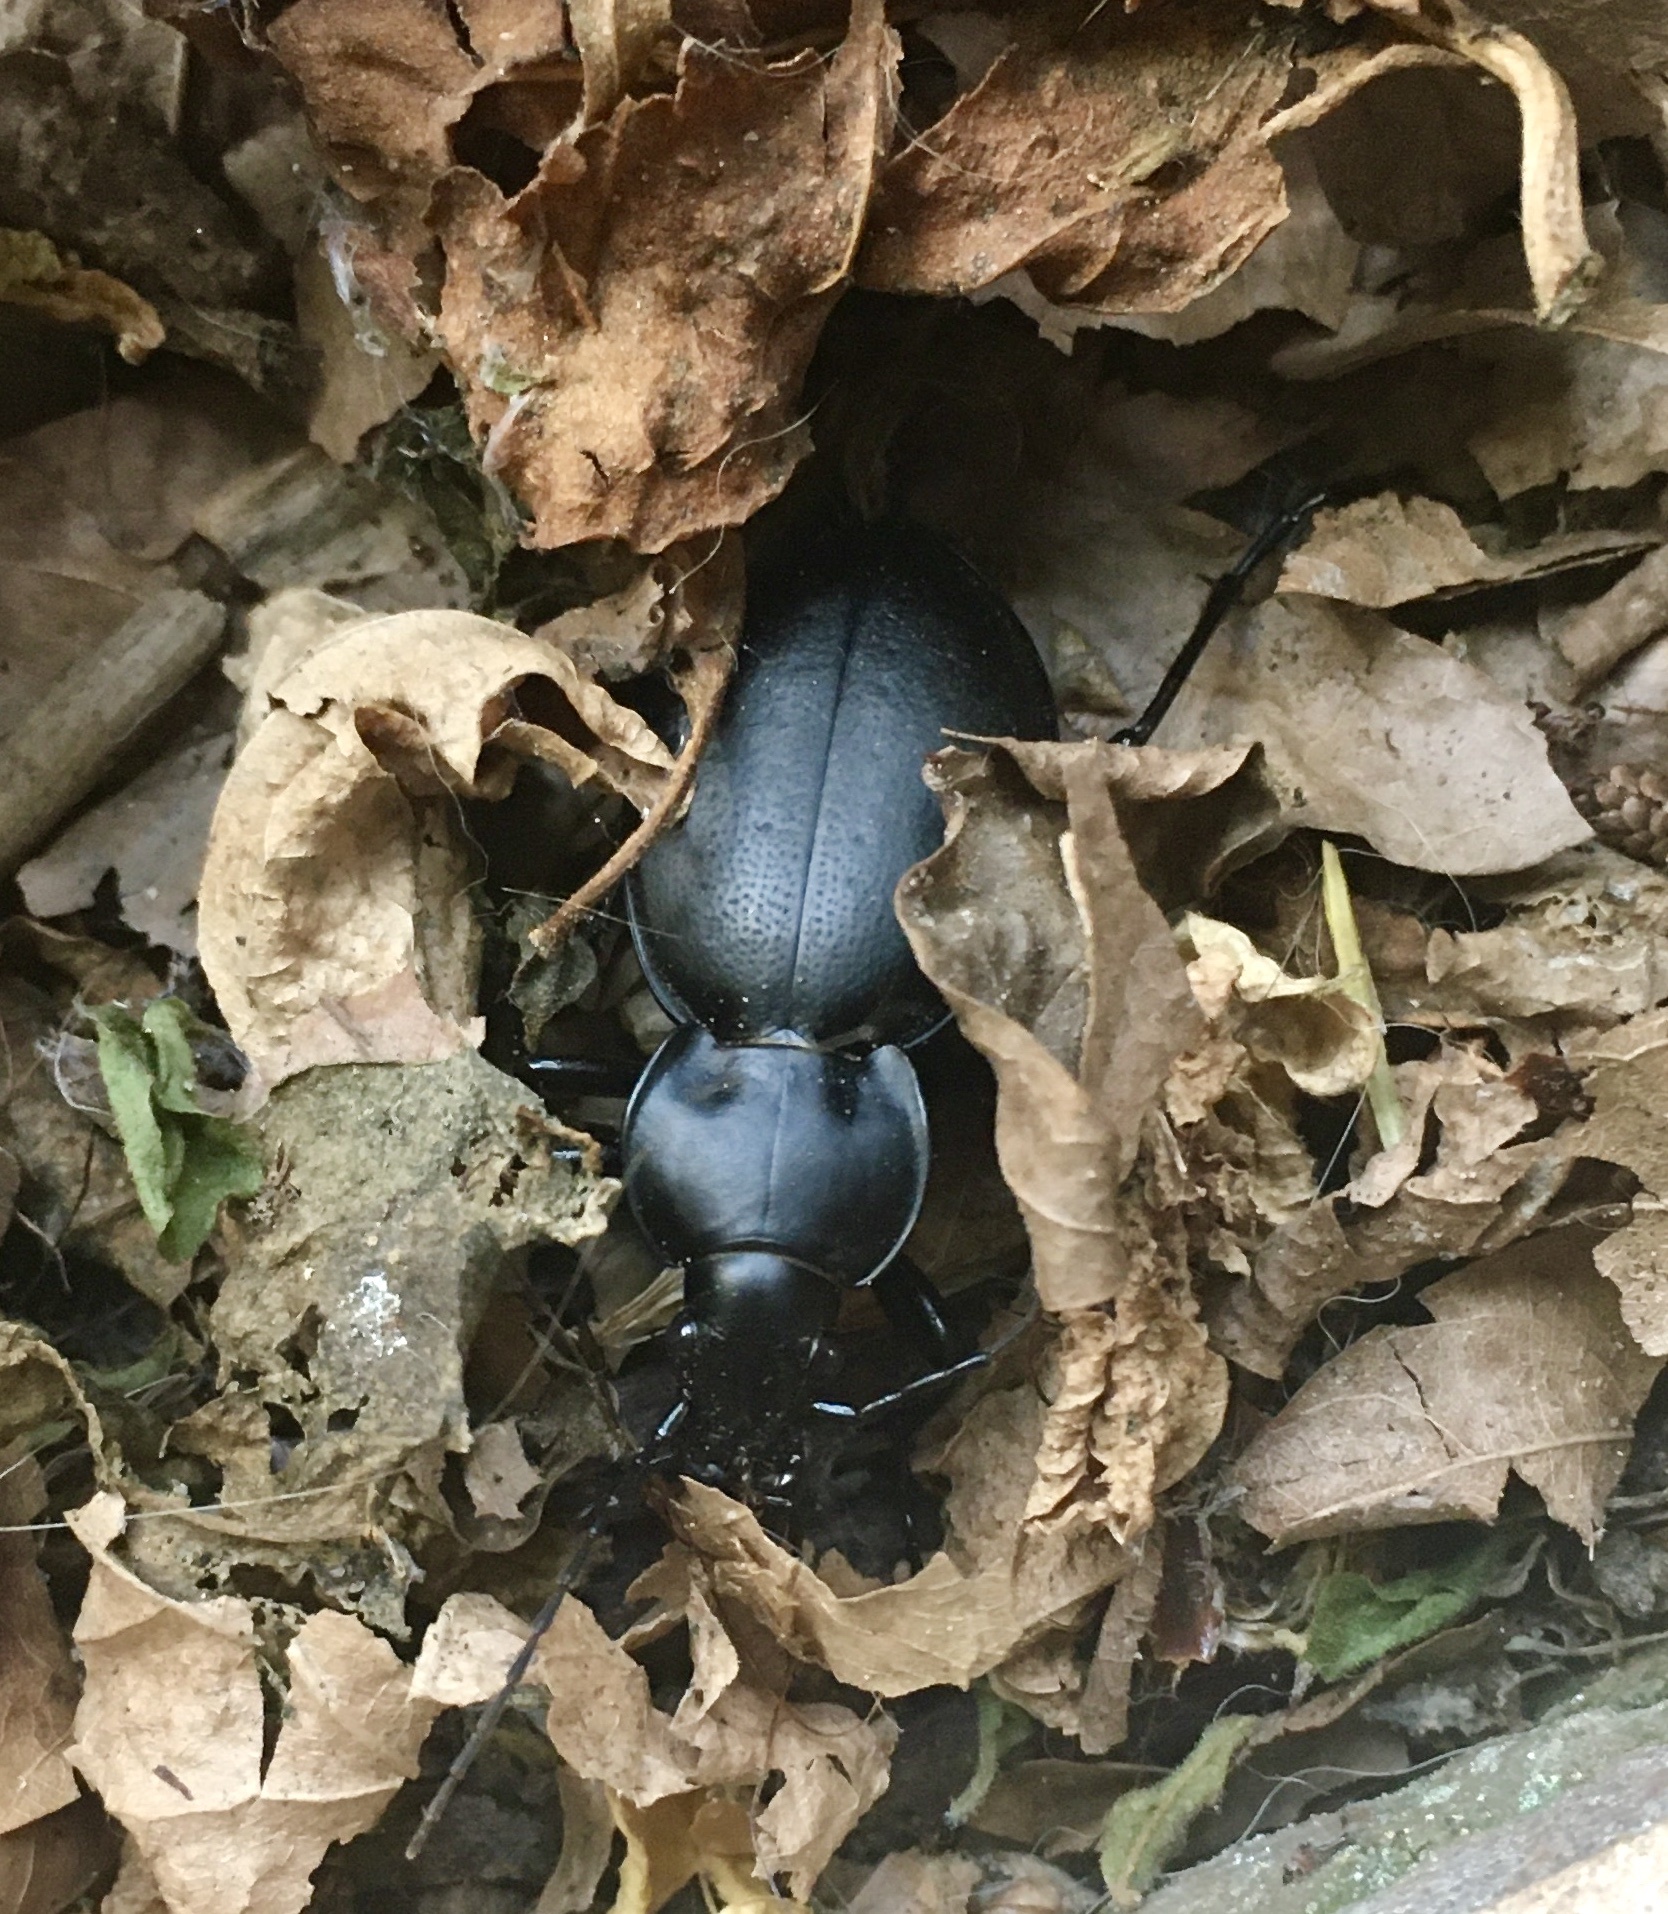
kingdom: Animalia
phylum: Arthropoda
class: Insecta
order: Coleoptera
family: Carabidae
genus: Carabus
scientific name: Carabus graecus
